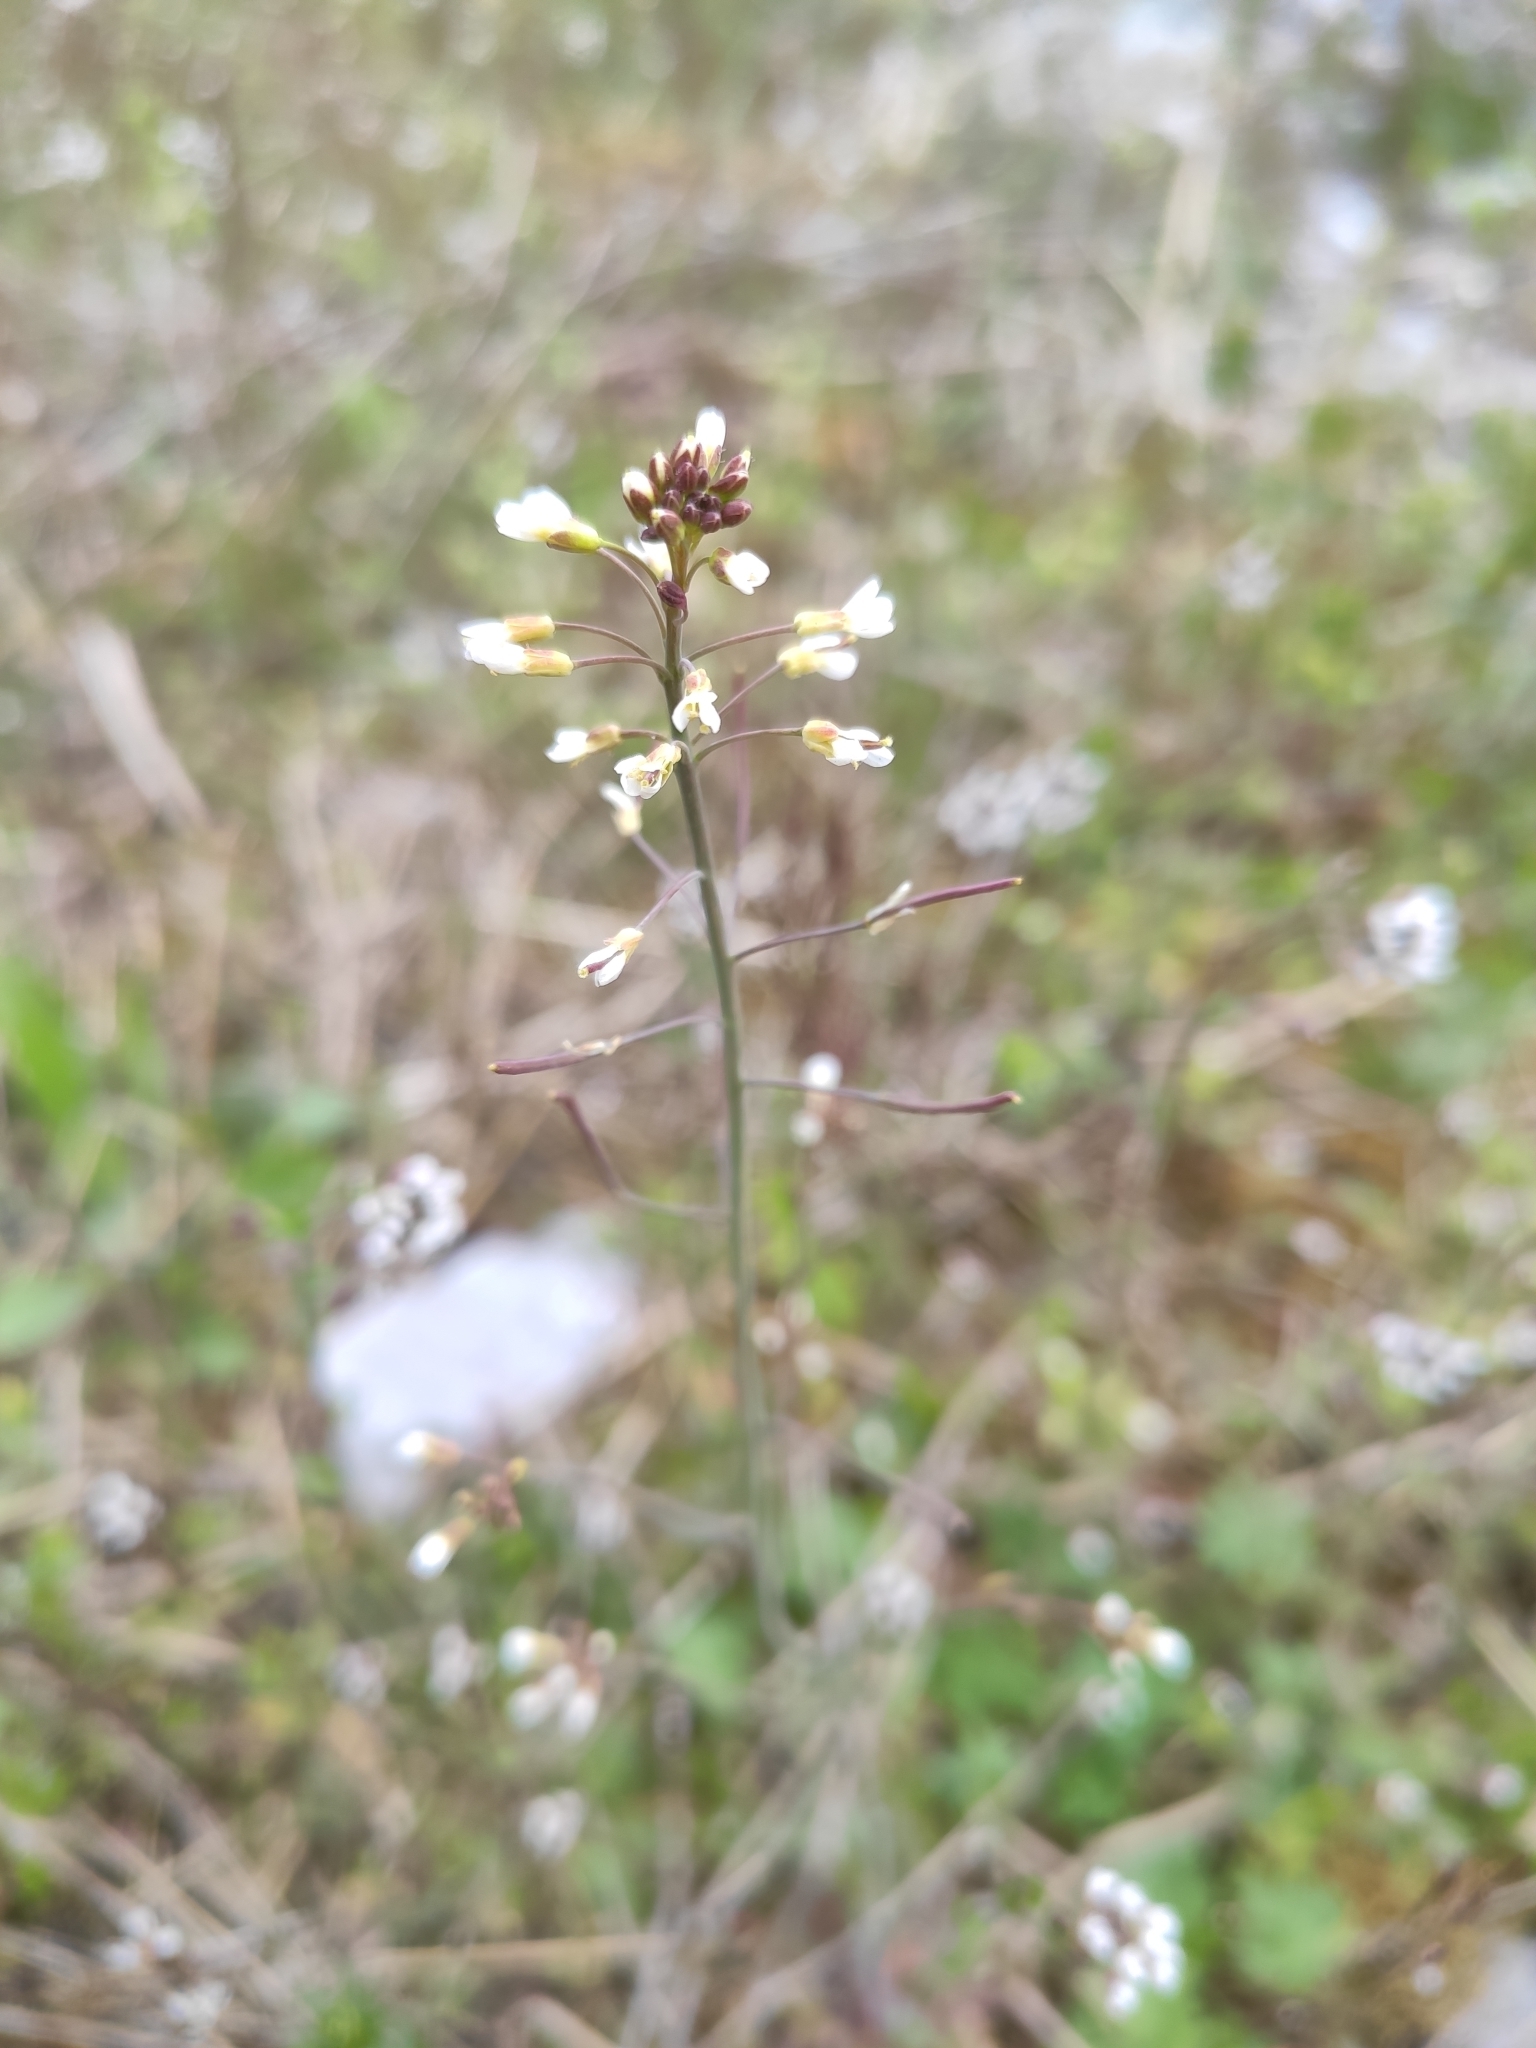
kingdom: Plantae
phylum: Tracheophyta
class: Magnoliopsida
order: Brassicales
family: Brassicaceae
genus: Capsella
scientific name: Capsella bursa-pastoris
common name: Shepherd's purse
